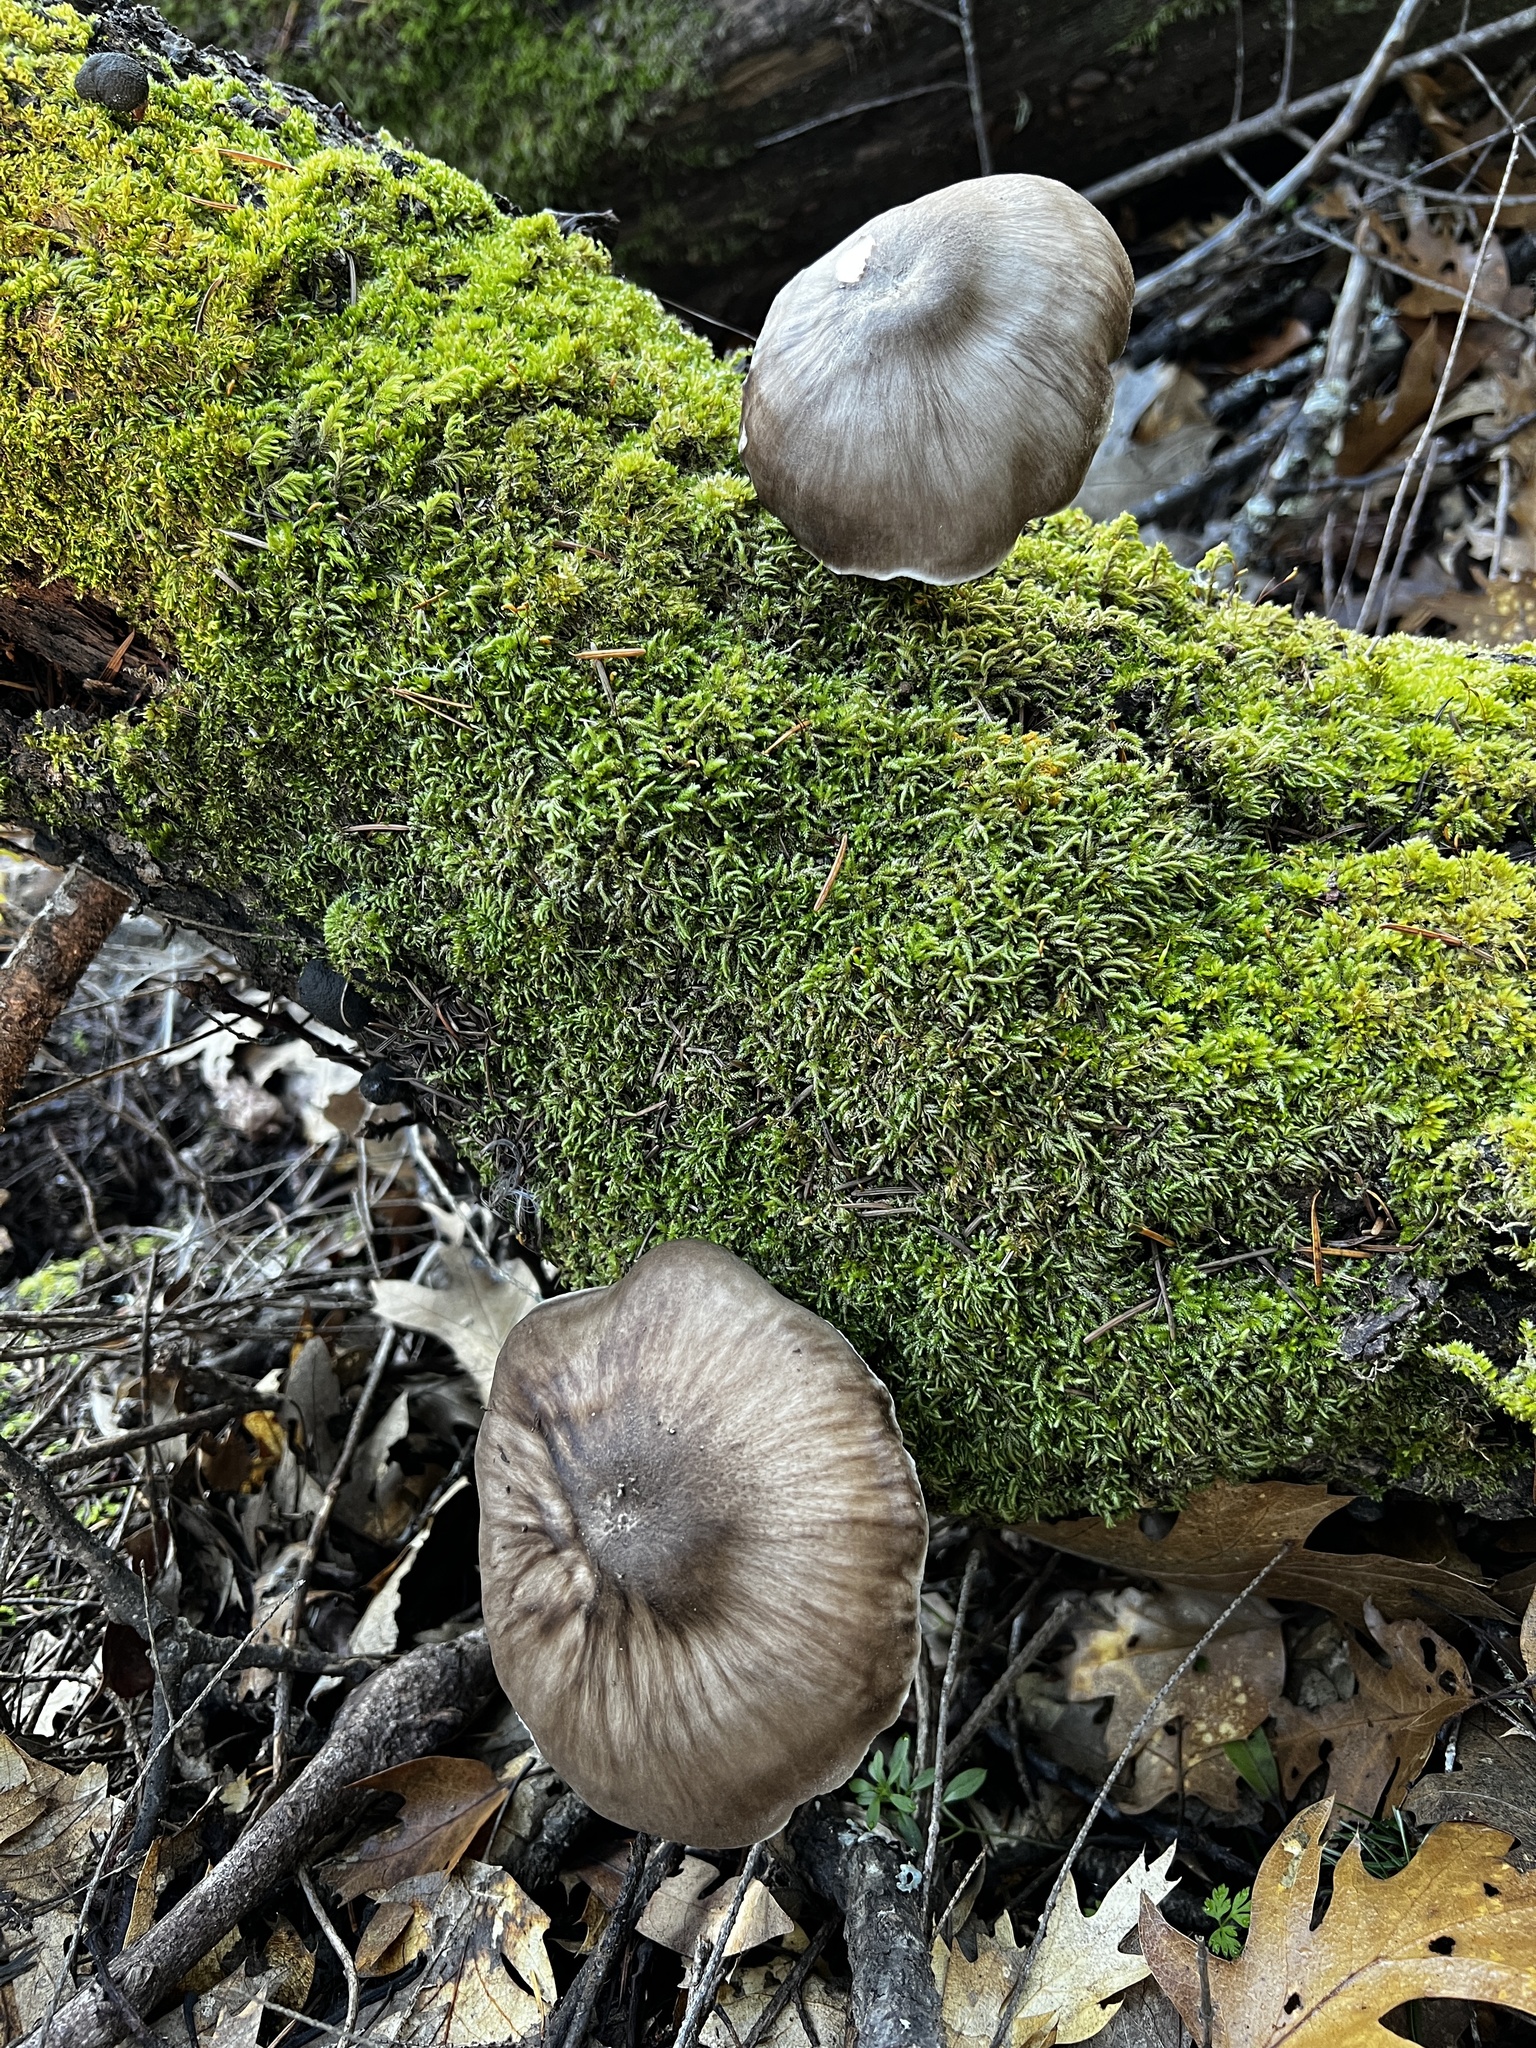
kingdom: Fungi
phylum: Basidiomycota
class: Agaricomycetes
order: Agaricales
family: Pluteaceae
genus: Pluteus
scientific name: Pluteus exilis
